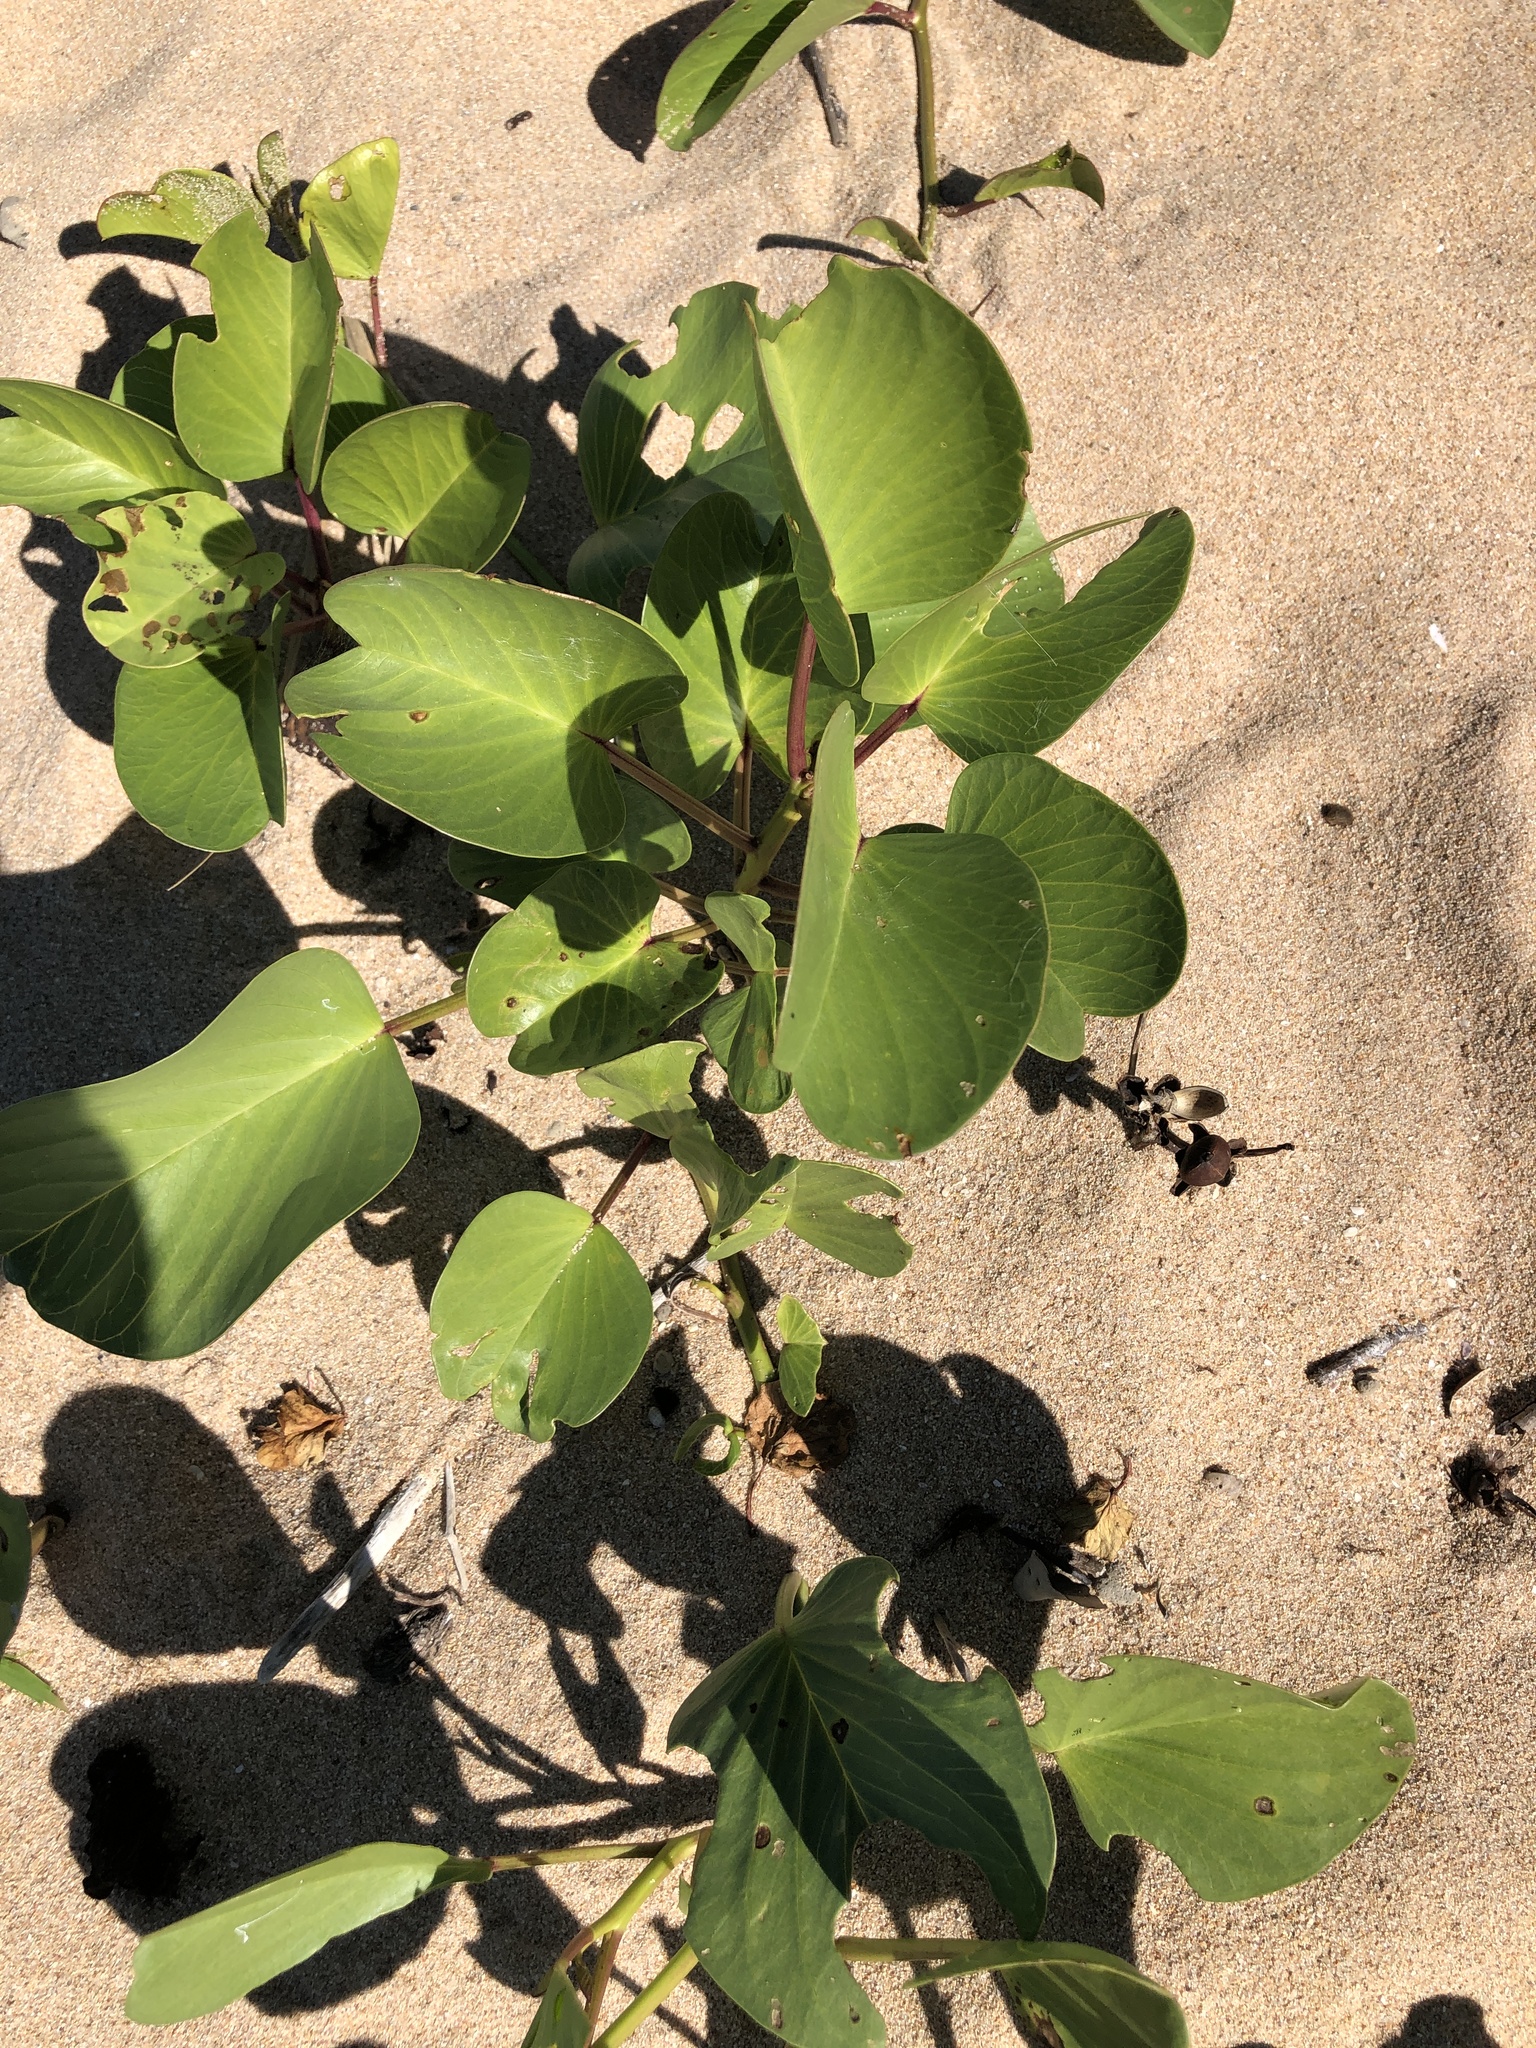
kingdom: Plantae
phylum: Tracheophyta
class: Magnoliopsida
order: Solanales
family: Convolvulaceae
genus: Ipomoea
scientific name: Ipomoea pes-caprae
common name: Beach morning glory
